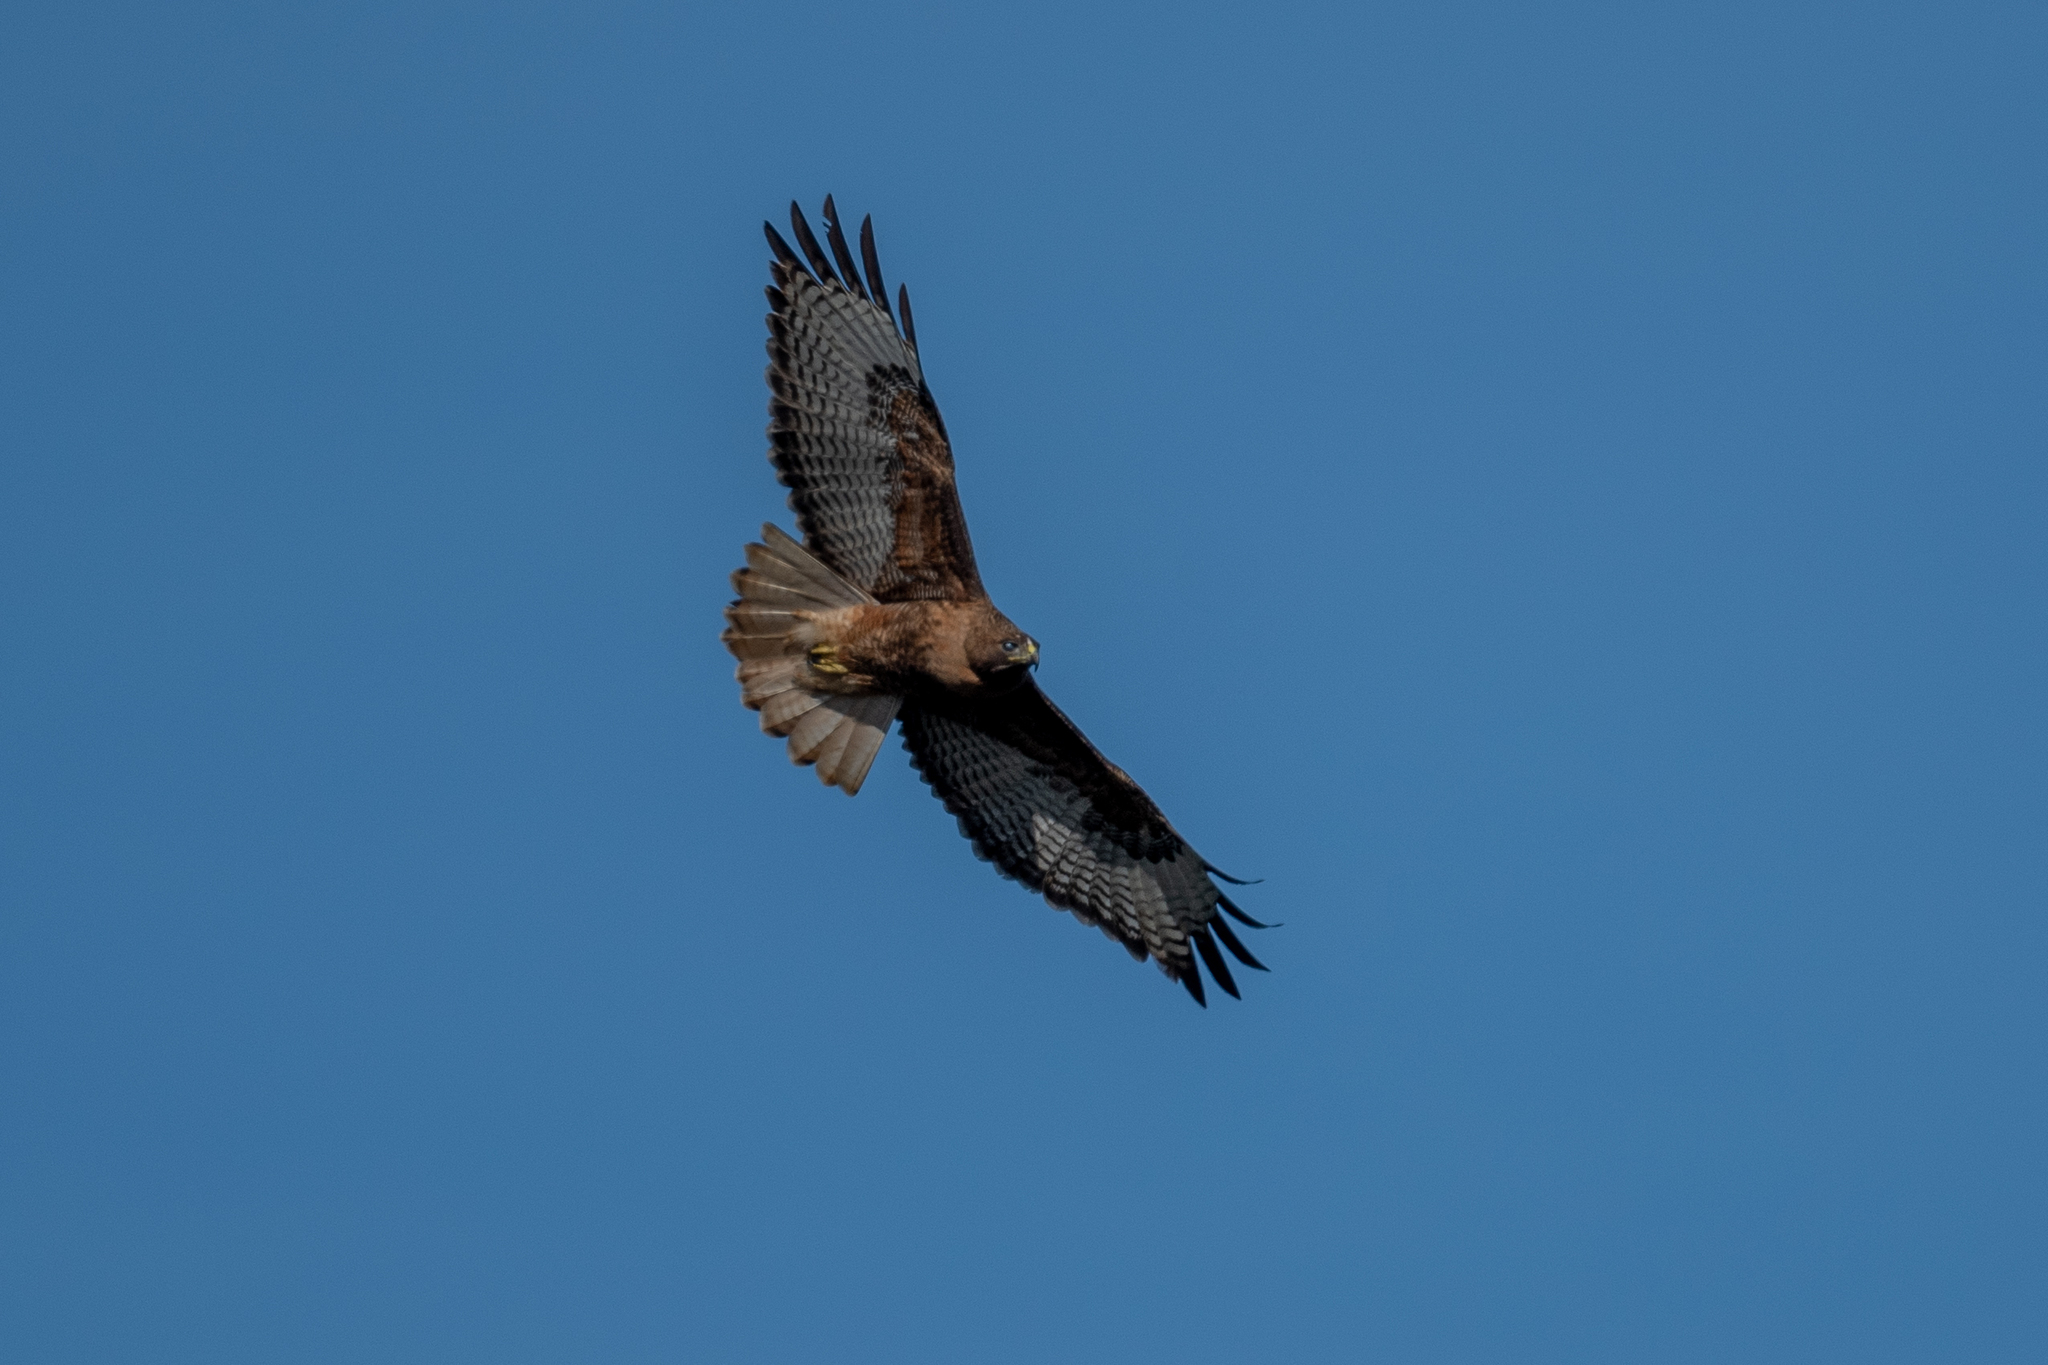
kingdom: Animalia
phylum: Chordata
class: Aves
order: Accipitriformes
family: Accipitridae
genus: Buteo
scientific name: Buteo jamaicensis
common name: Red-tailed hawk
